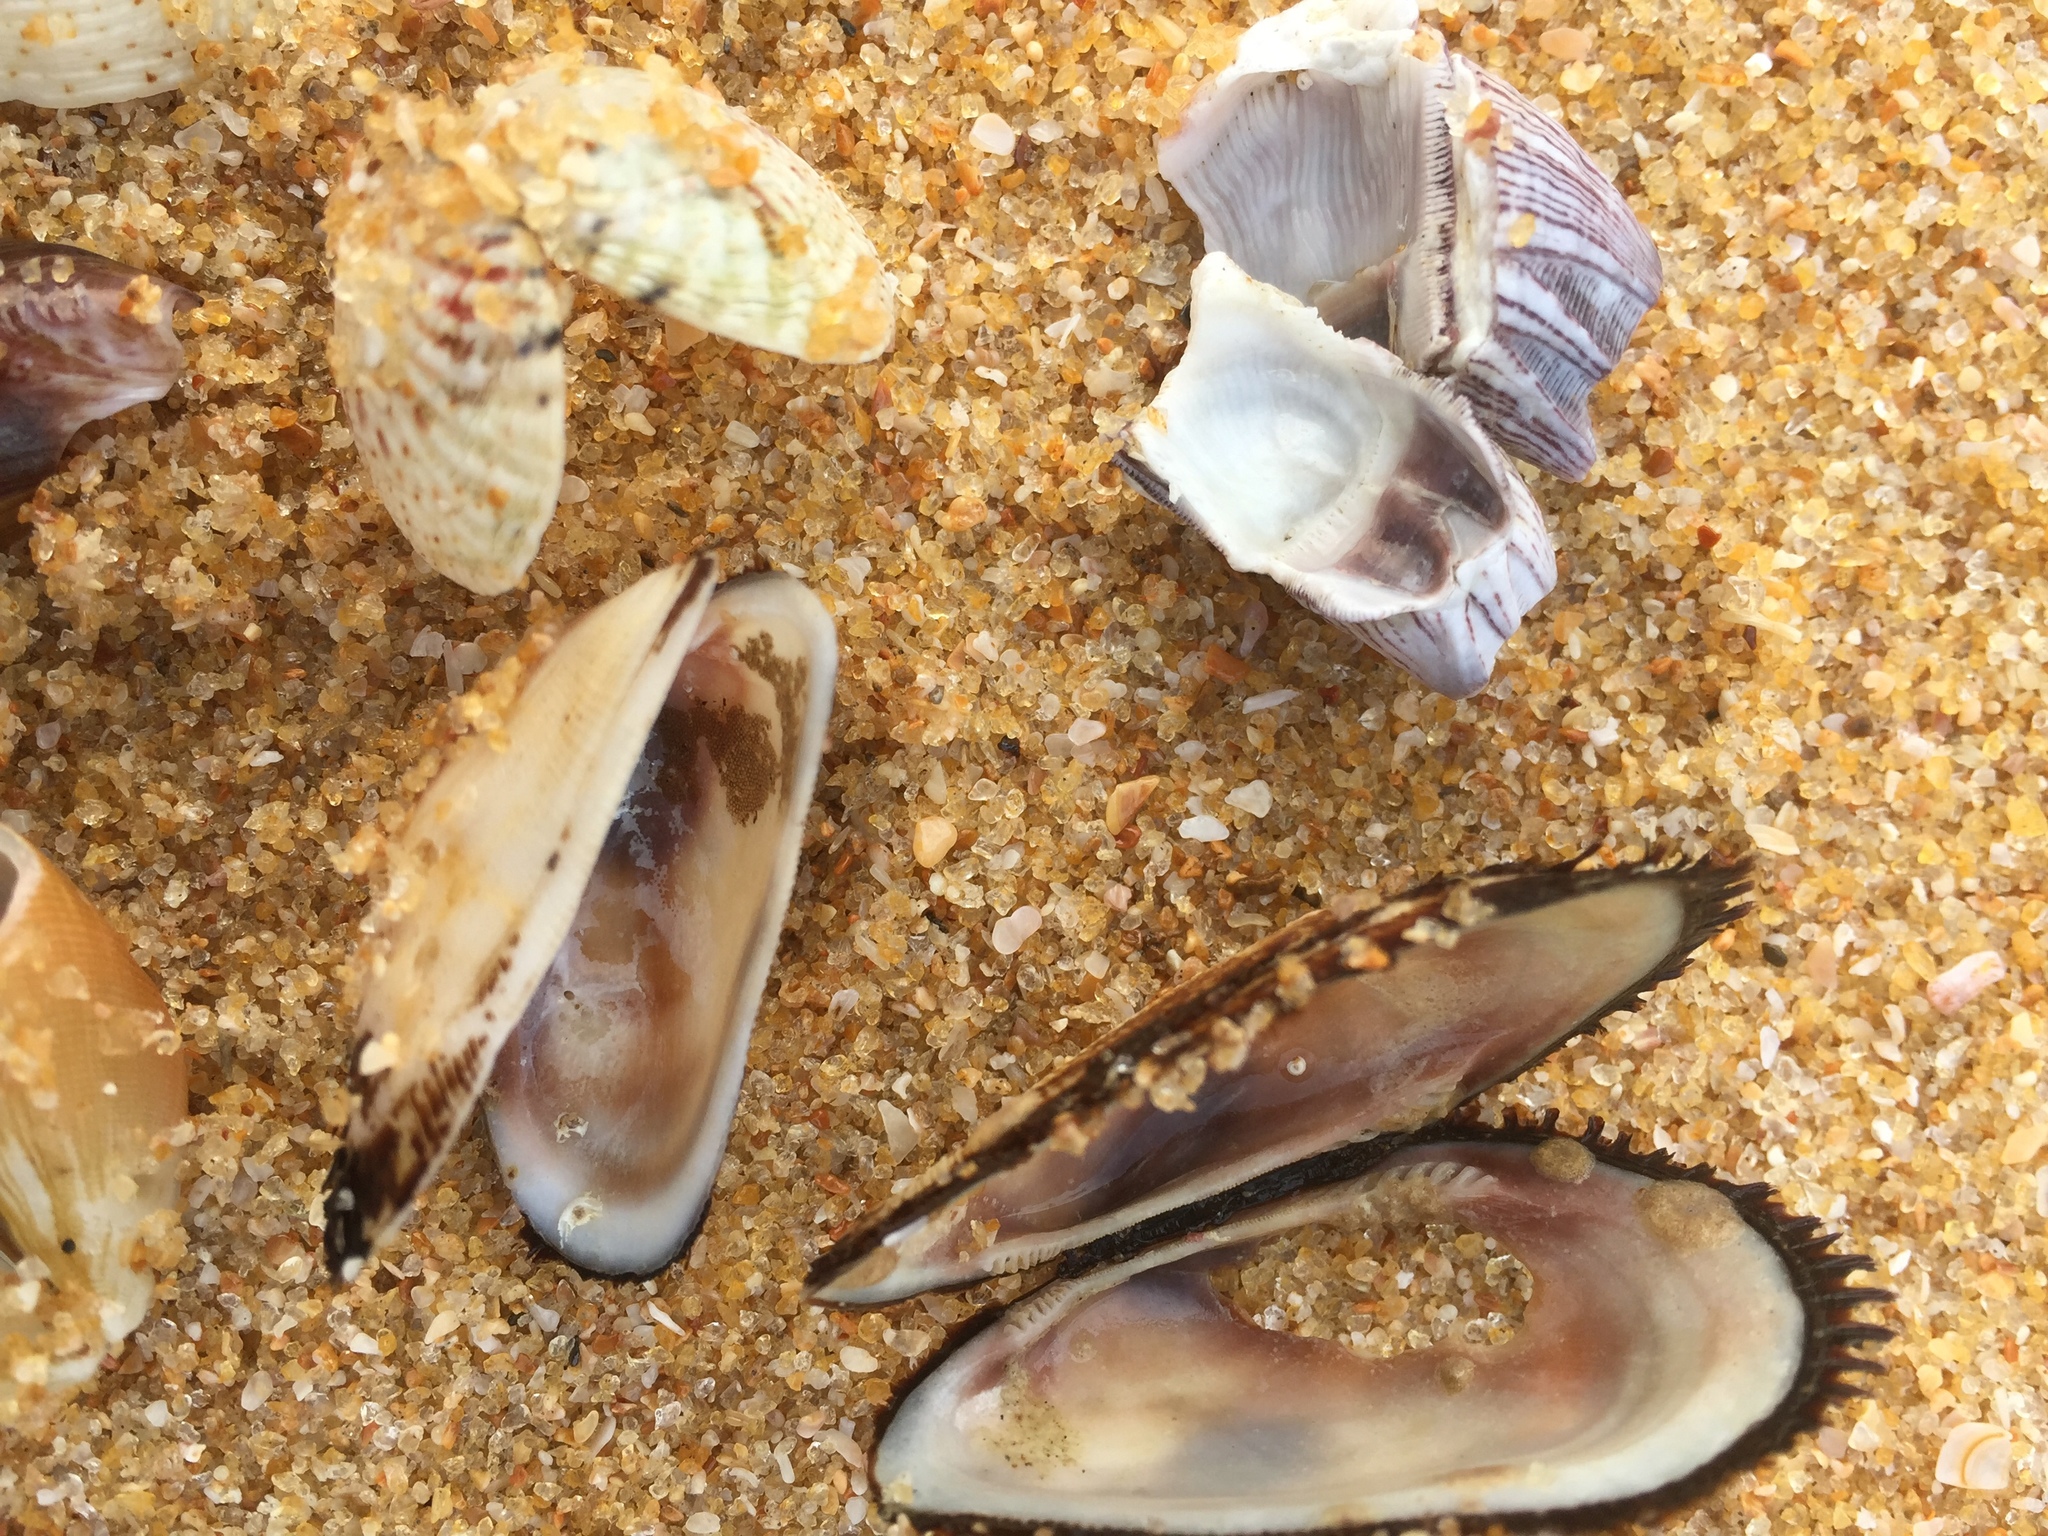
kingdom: Animalia
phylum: Arthropoda
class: Maxillopoda
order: Sessilia
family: Balanidae
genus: Megabalanus
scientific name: Megabalanus zebra
